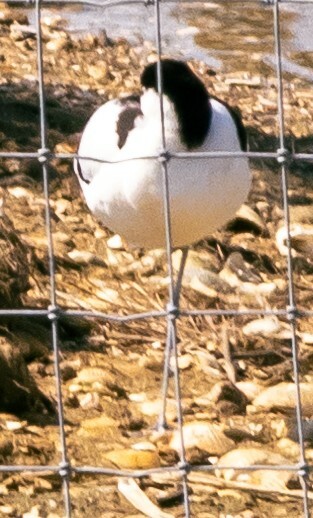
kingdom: Animalia
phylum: Chordata
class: Aves
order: Charadriiformes
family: Recurvirostridae
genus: Recurvirostra
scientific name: Recurvirostra avosetta
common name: Pied avocet
